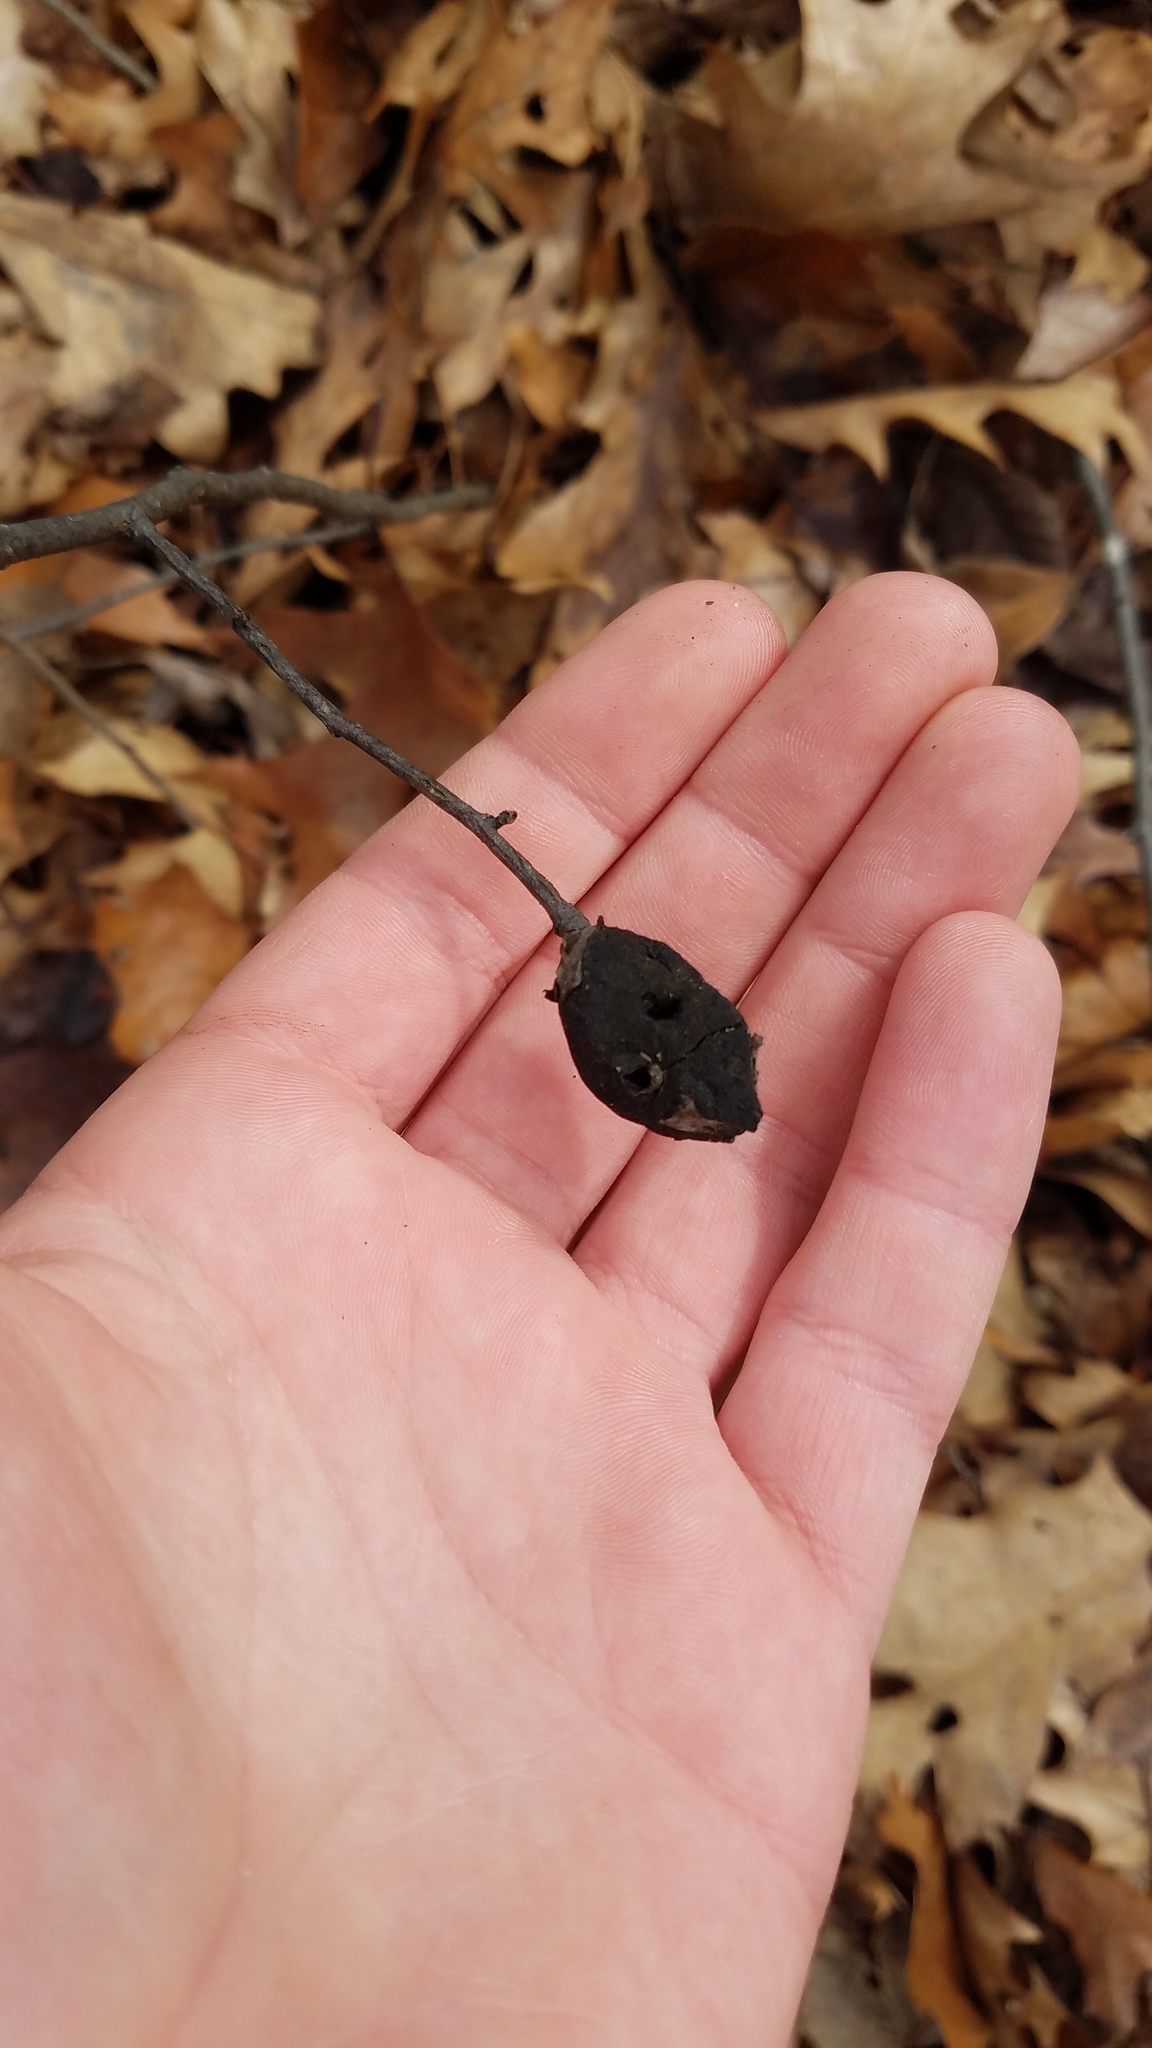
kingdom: Fungi
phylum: Ascomycota
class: Dothideomycetes
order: Venturiales
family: Venturiaceae
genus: Apiosporina
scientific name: Apiosporina morbosa
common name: Black knot
